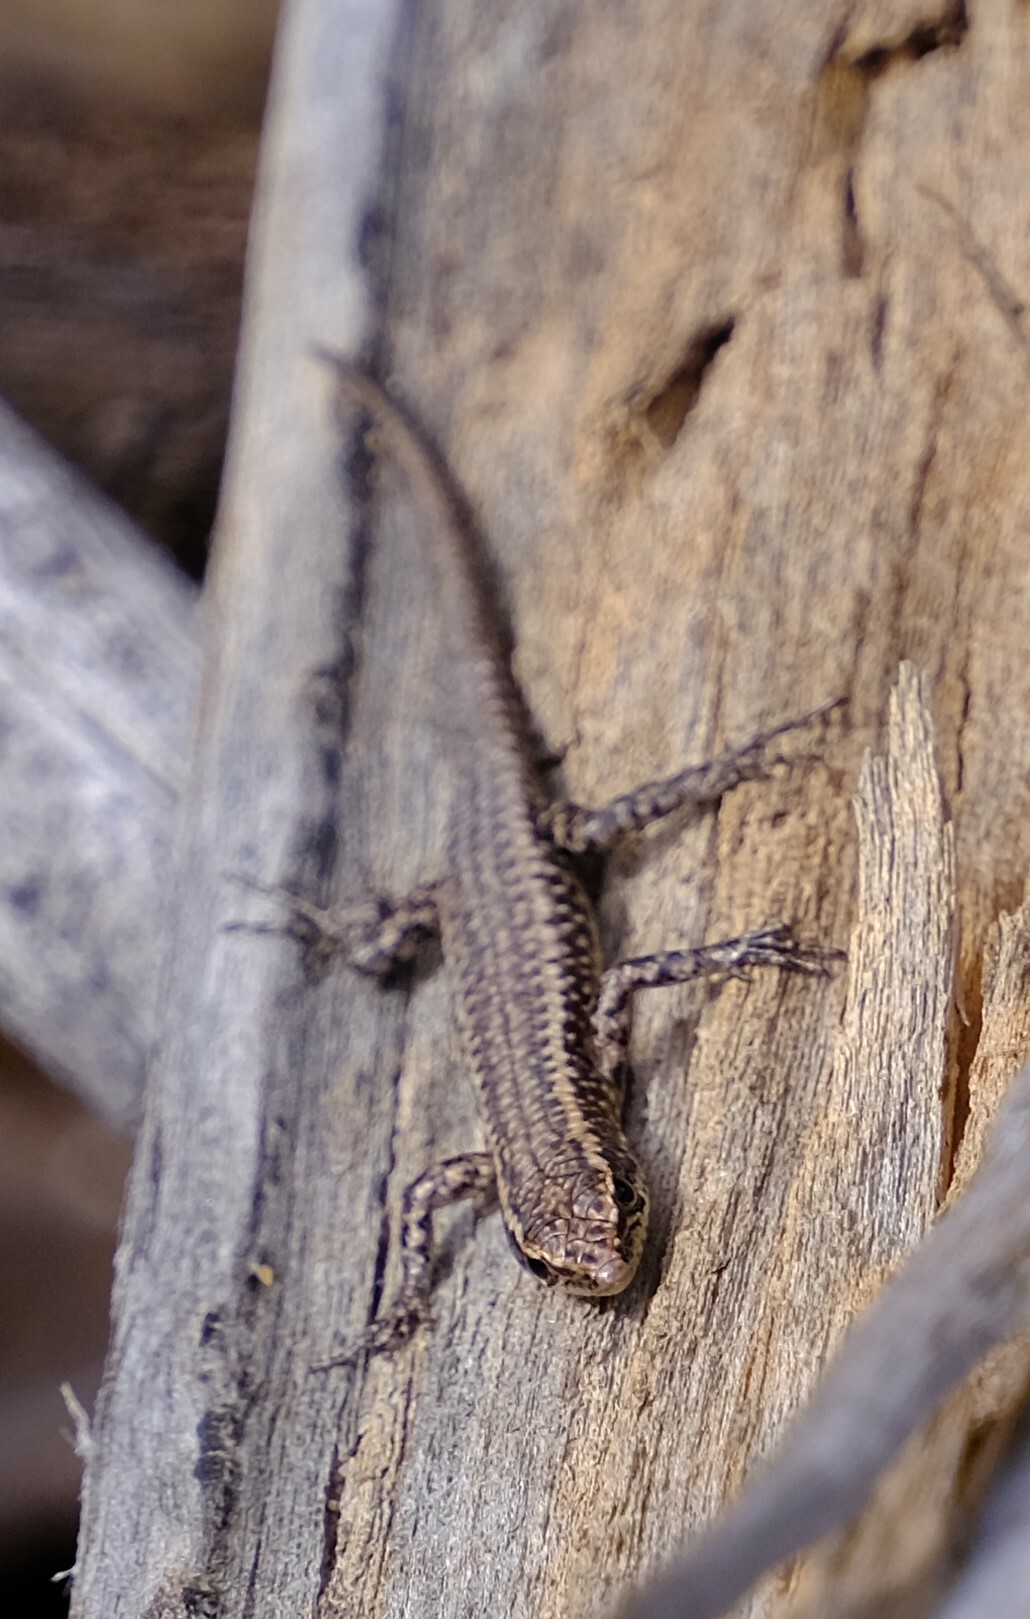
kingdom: Animalia
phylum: Chordata
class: Squamata
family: Scincidae
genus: Cryptoblepharus
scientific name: Cryptoblepharus buchananii
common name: Buchanan's snake-eyed skink
